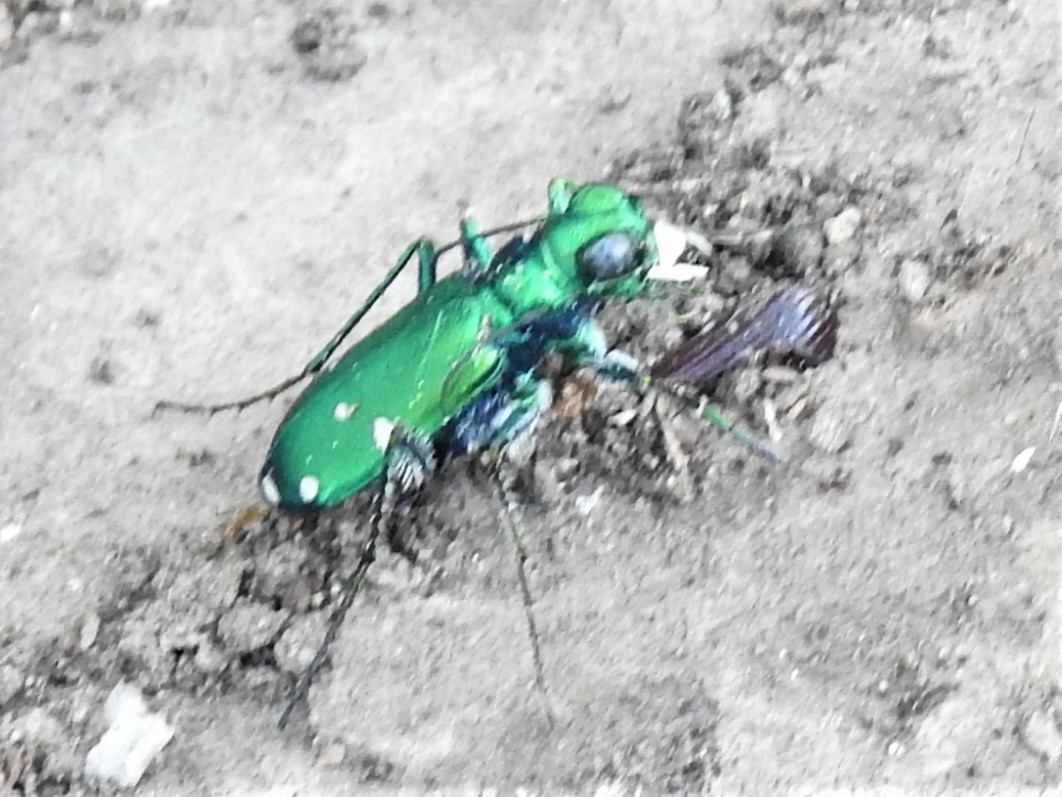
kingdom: Animalia
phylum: Arthropoda
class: Insecta
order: Coleoptera
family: Carabidae
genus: Cicindela
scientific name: Cicindela sexguttata
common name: Six-spotted tiger beetle
